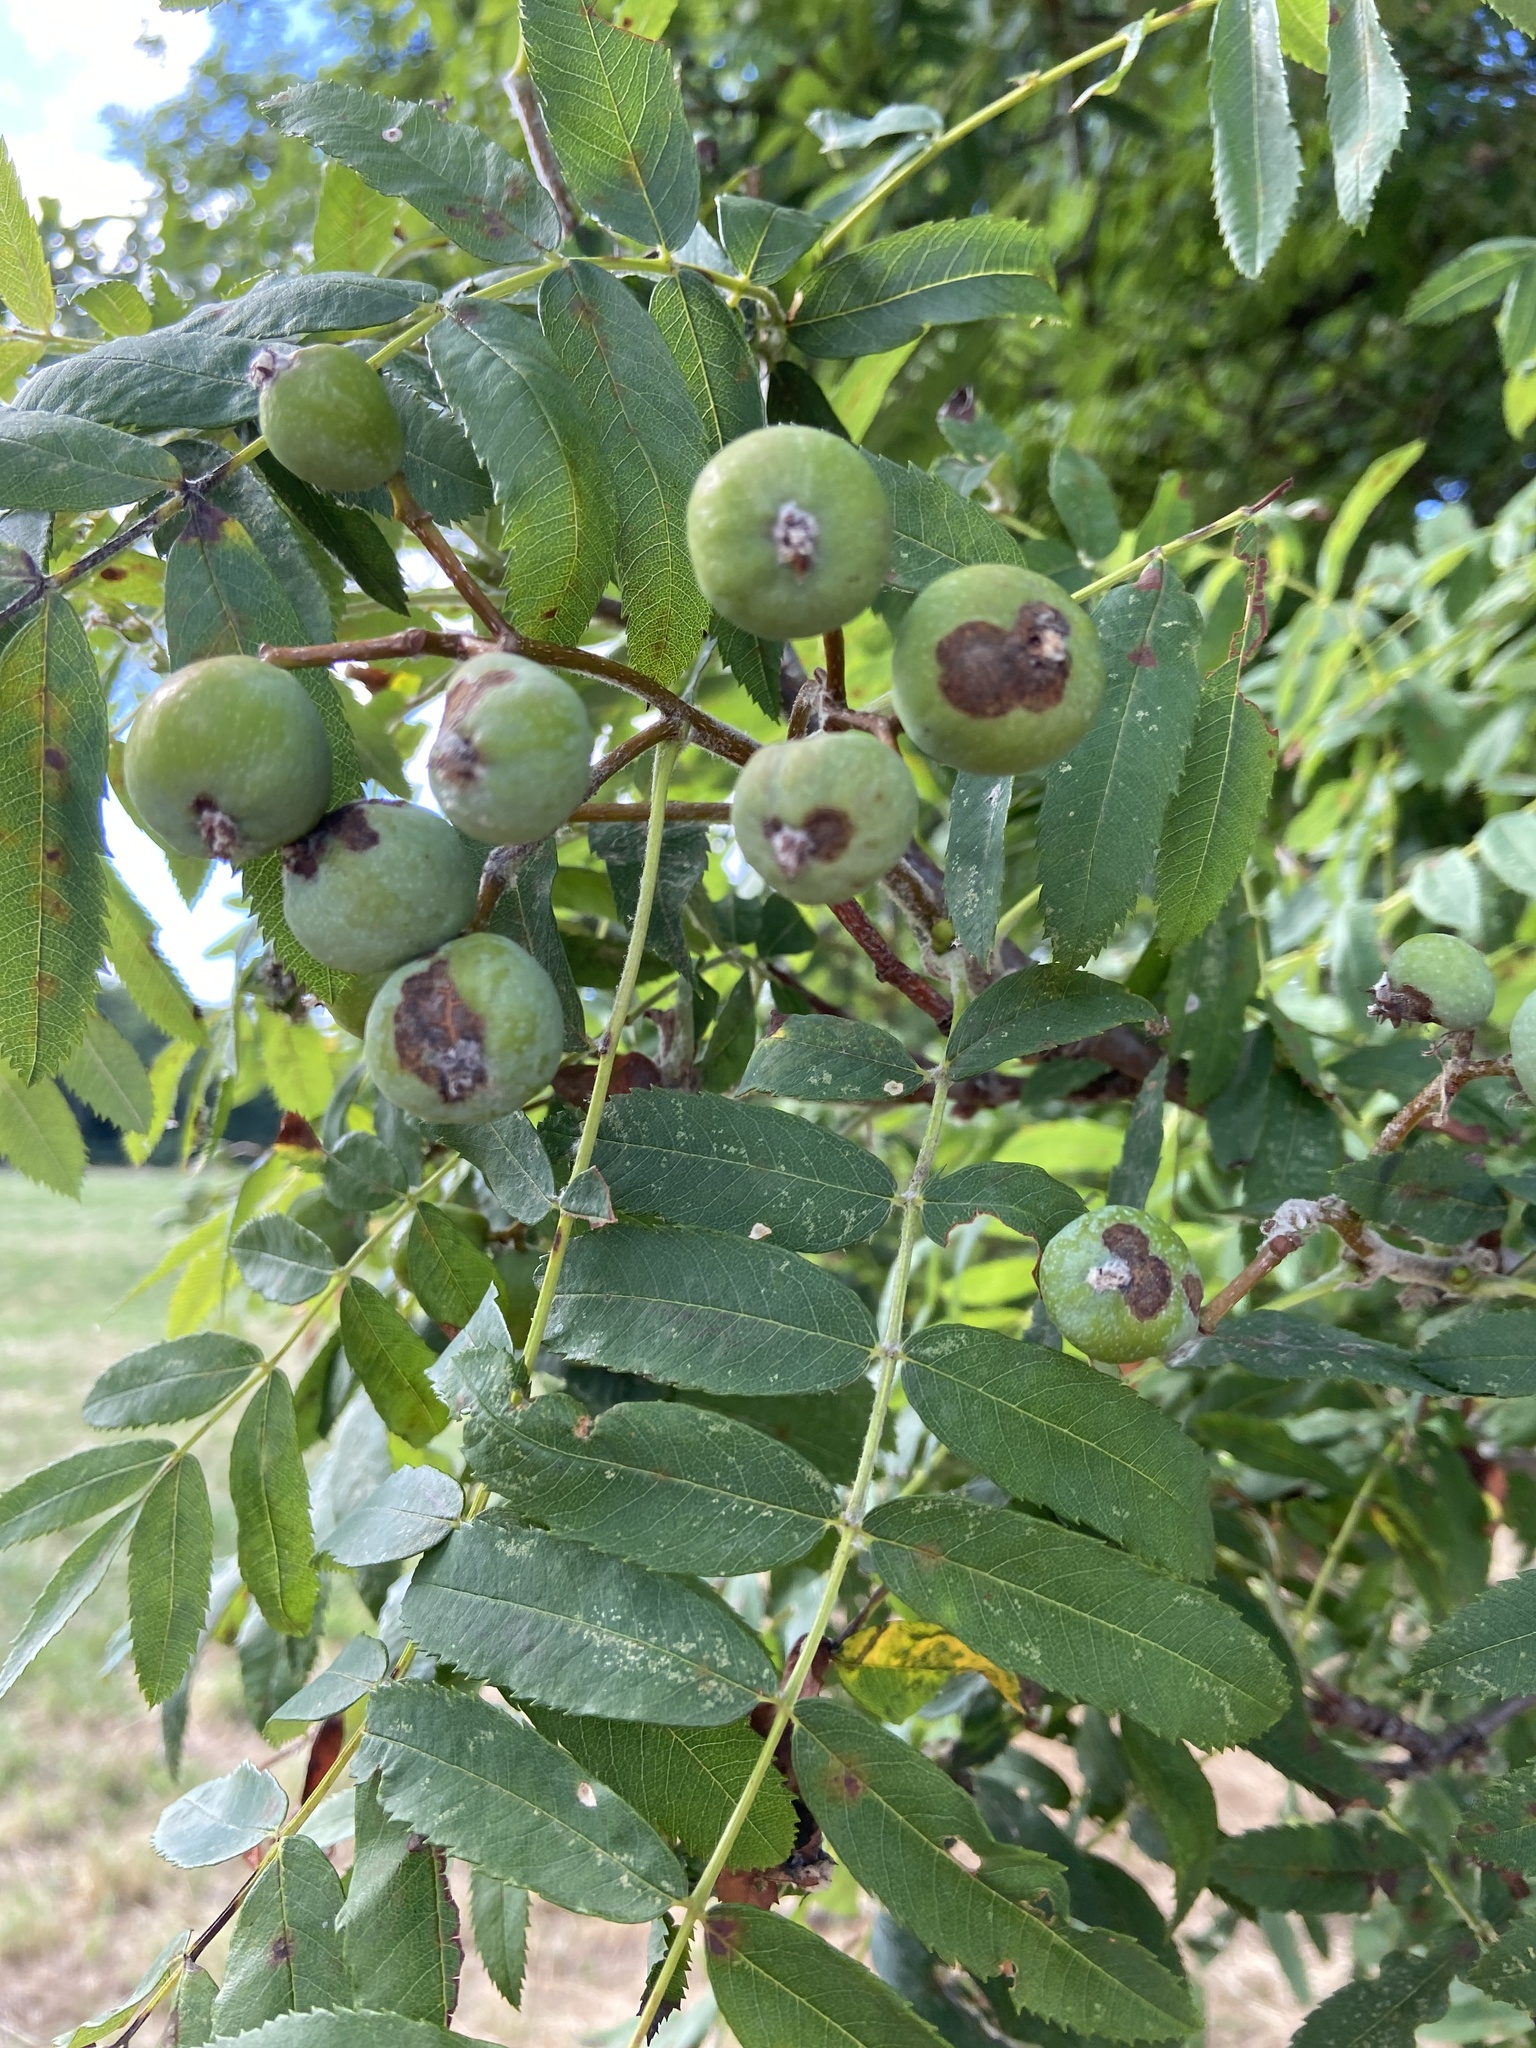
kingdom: Plantae
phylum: Tracheophyta
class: Magnoliopsida
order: Rosales
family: Rosaceae
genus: Cormus
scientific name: Cormus domestica
